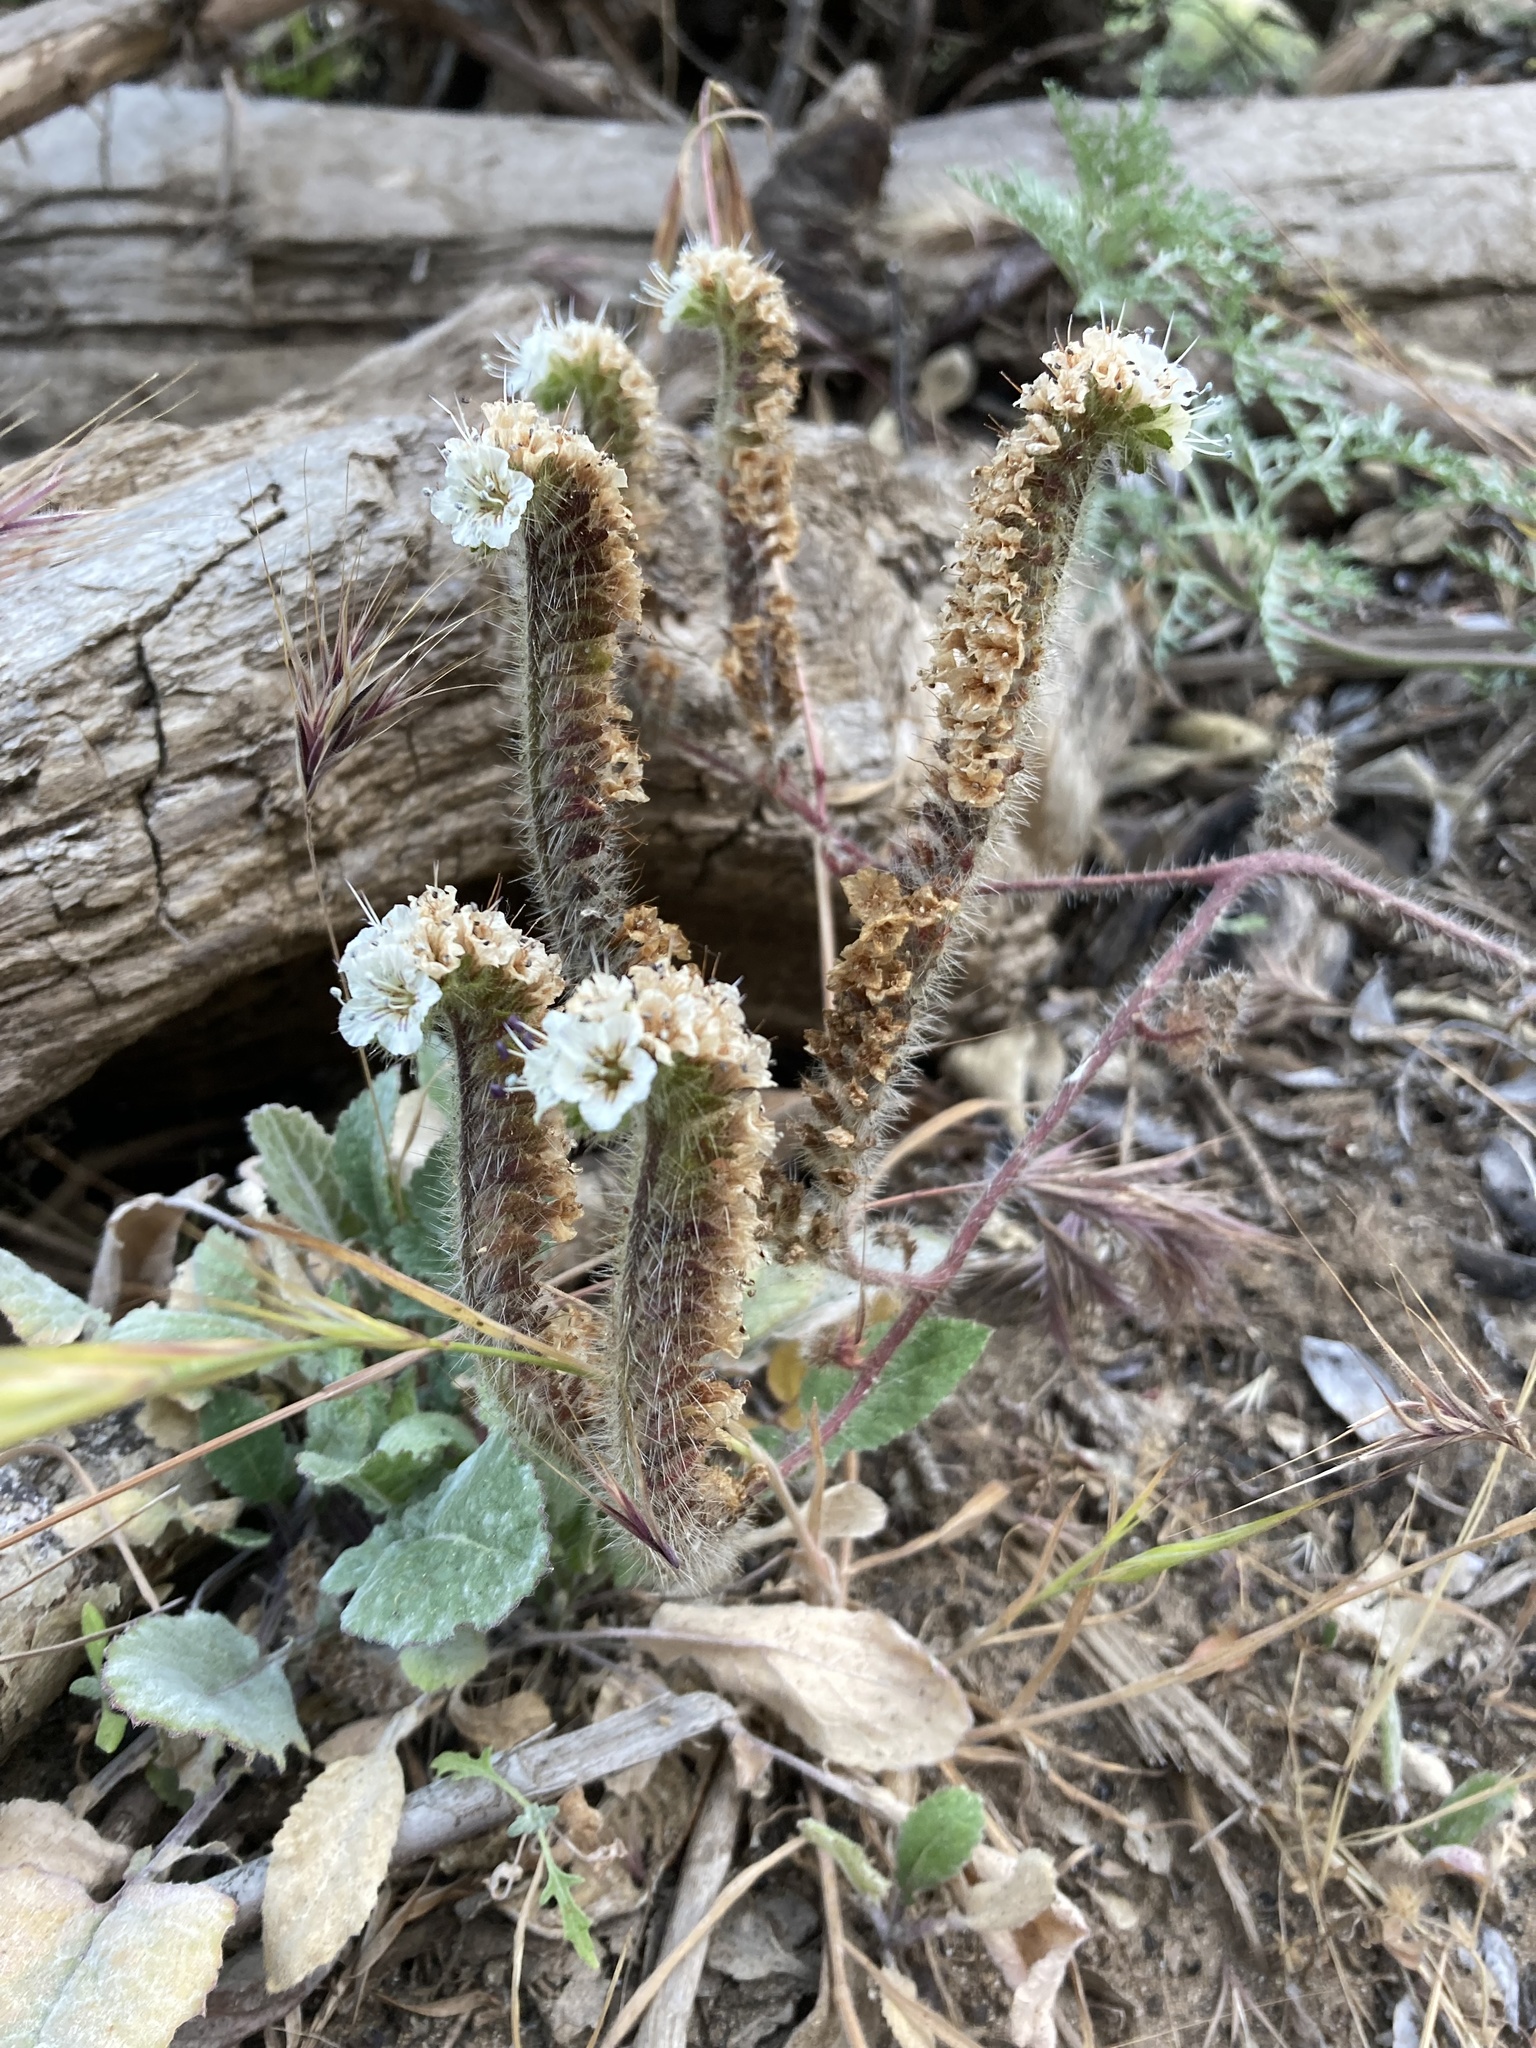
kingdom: Plantae
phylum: Tracheophyta
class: Magnoliopsida
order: Boraginales
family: Hydrophyllaceae
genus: Phacelia
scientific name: Phacelia cicutaria
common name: Caterpillar phacelia
